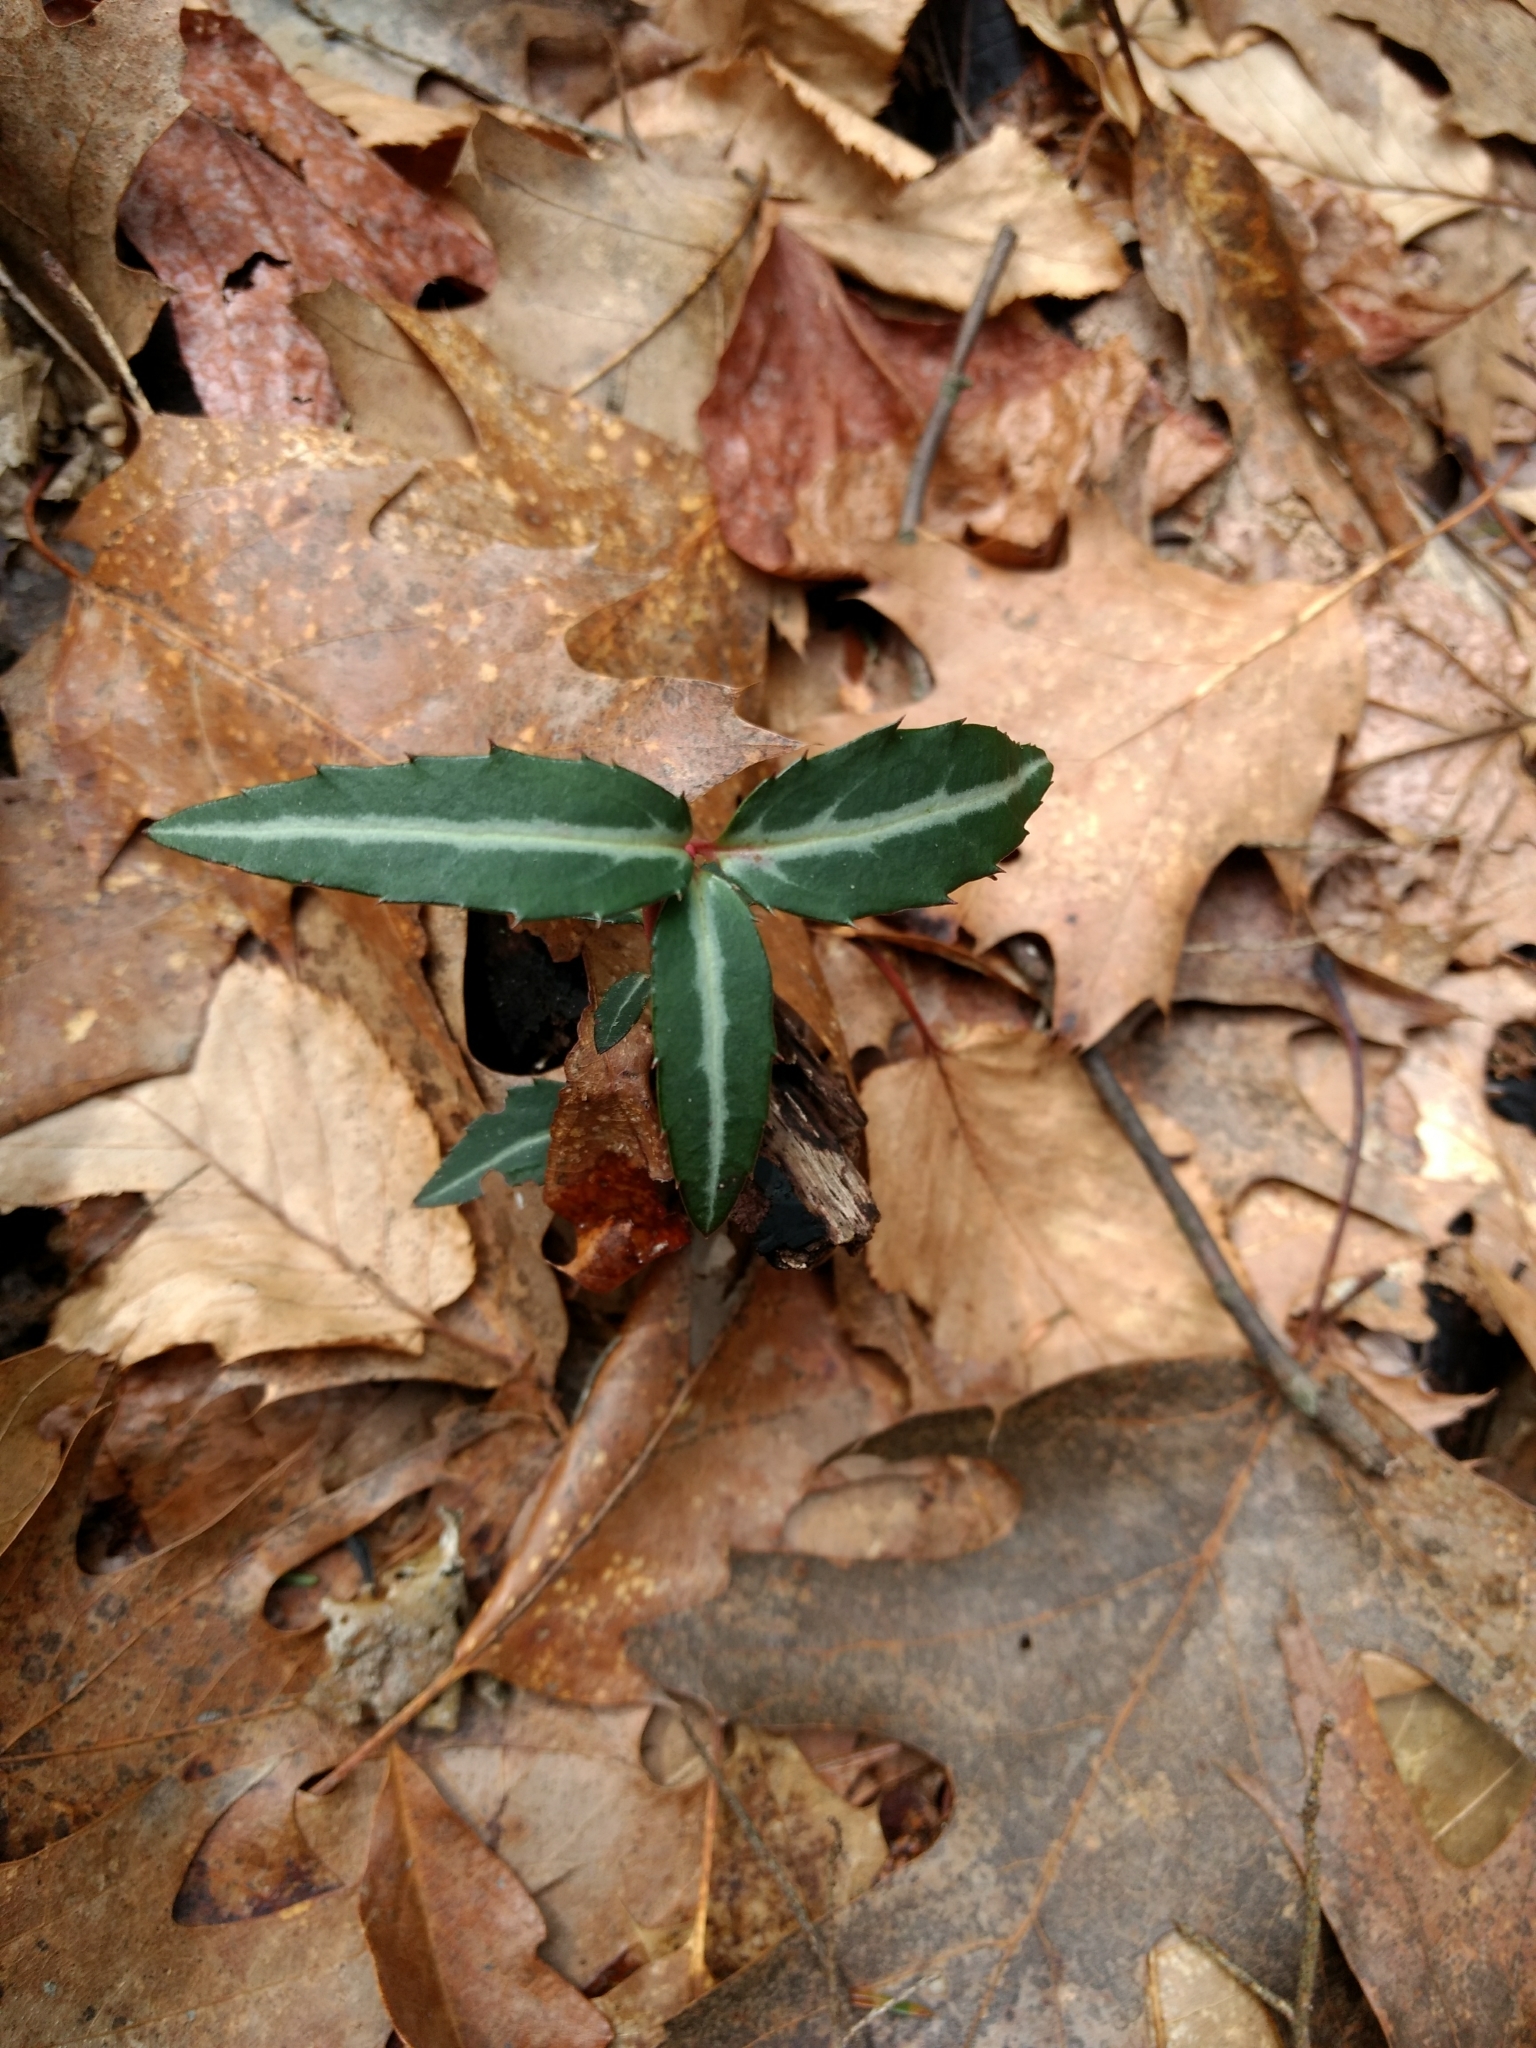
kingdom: Plantae
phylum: Tracheophyta
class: Magnoliopsida
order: Ericales
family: Ericaceae
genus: Chimaphila
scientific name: Chimaphila maculata
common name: Spotted pipsissewa
